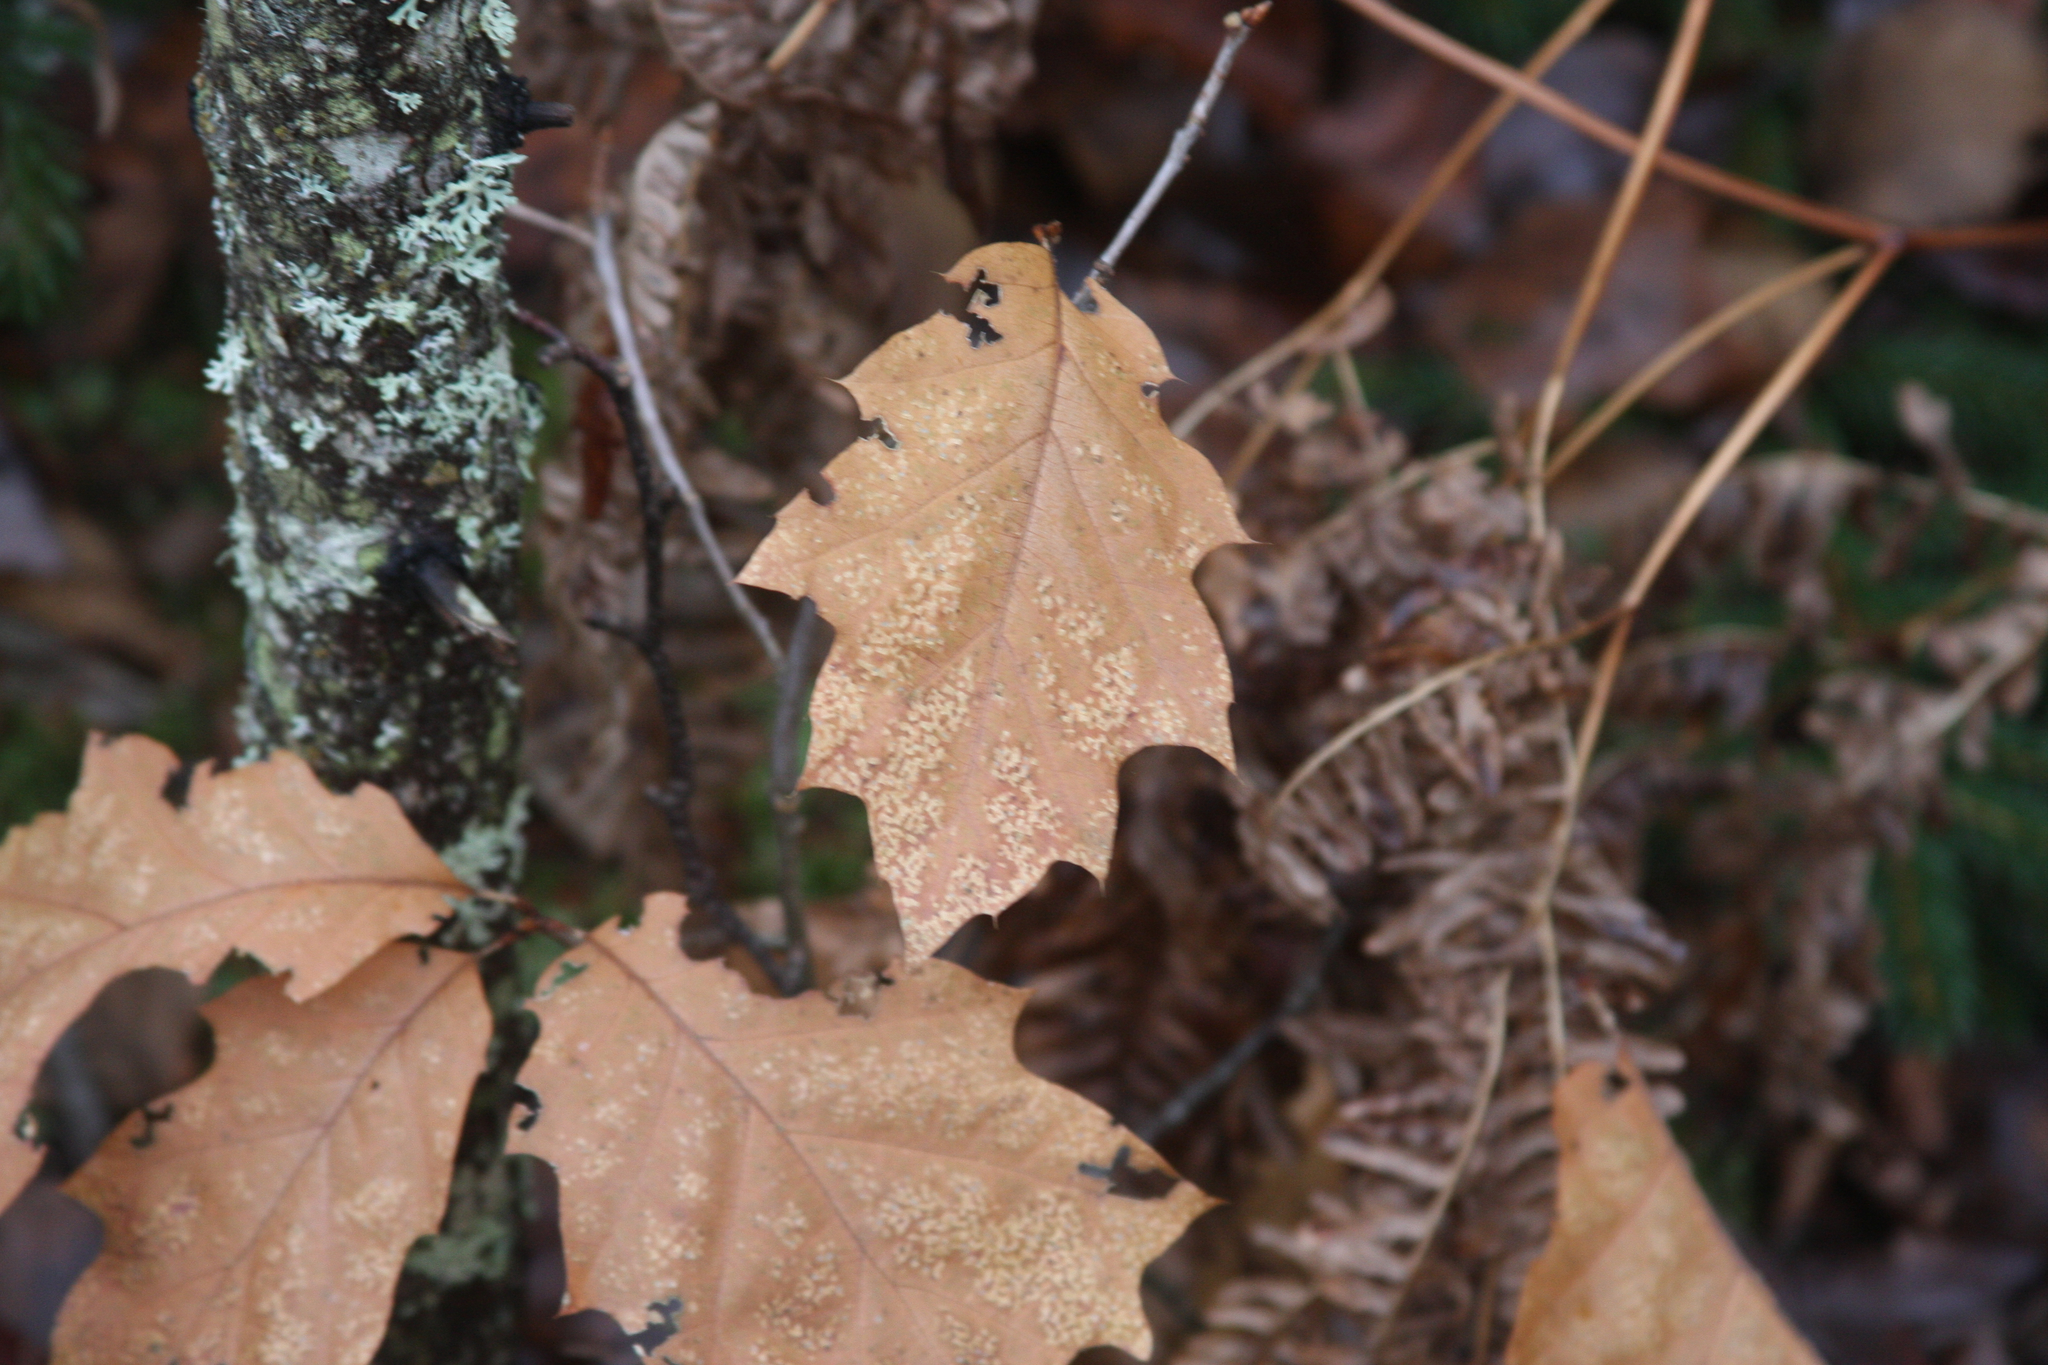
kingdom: Plantae
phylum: Tracheophyta
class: Magnoliopsida
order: Fagales
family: Fagaceae
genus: Quercus
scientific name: Quercus rubra
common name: Red oak
